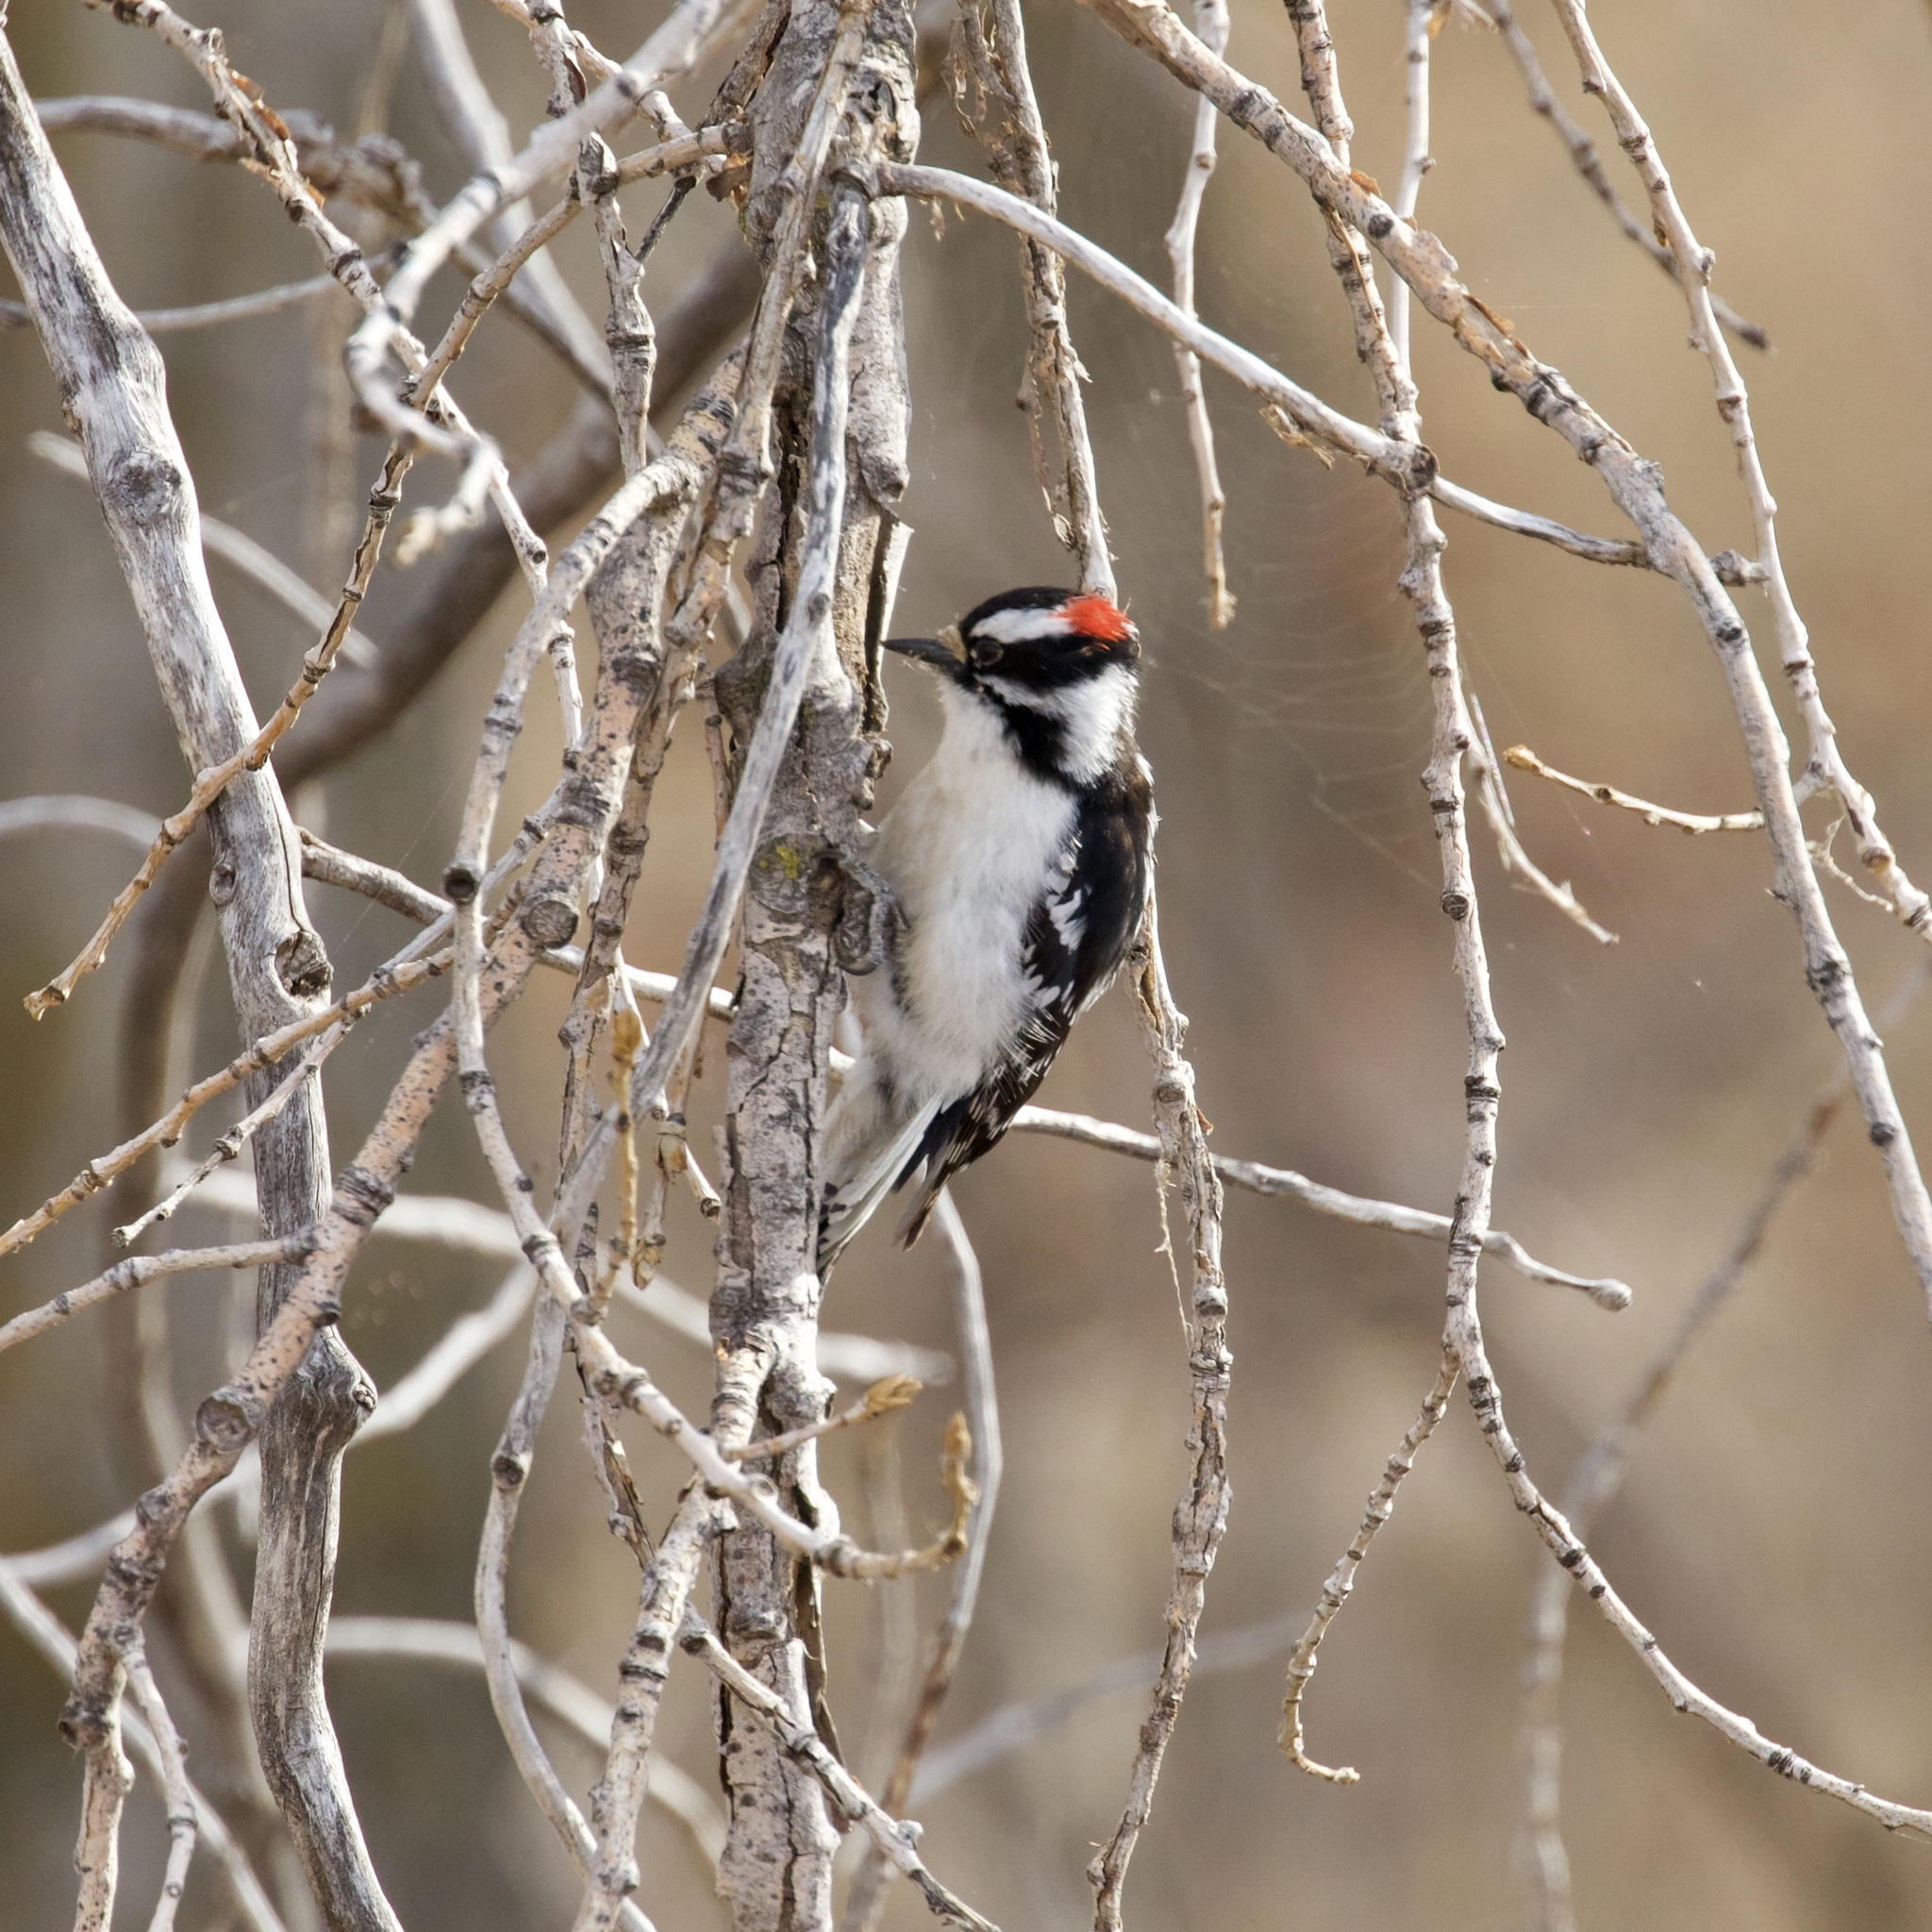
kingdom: Animalia
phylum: Chordata
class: Aves
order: Piciformes
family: Picidae
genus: Dryobates
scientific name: Dryobates pubescens
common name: Downy woodpecker
